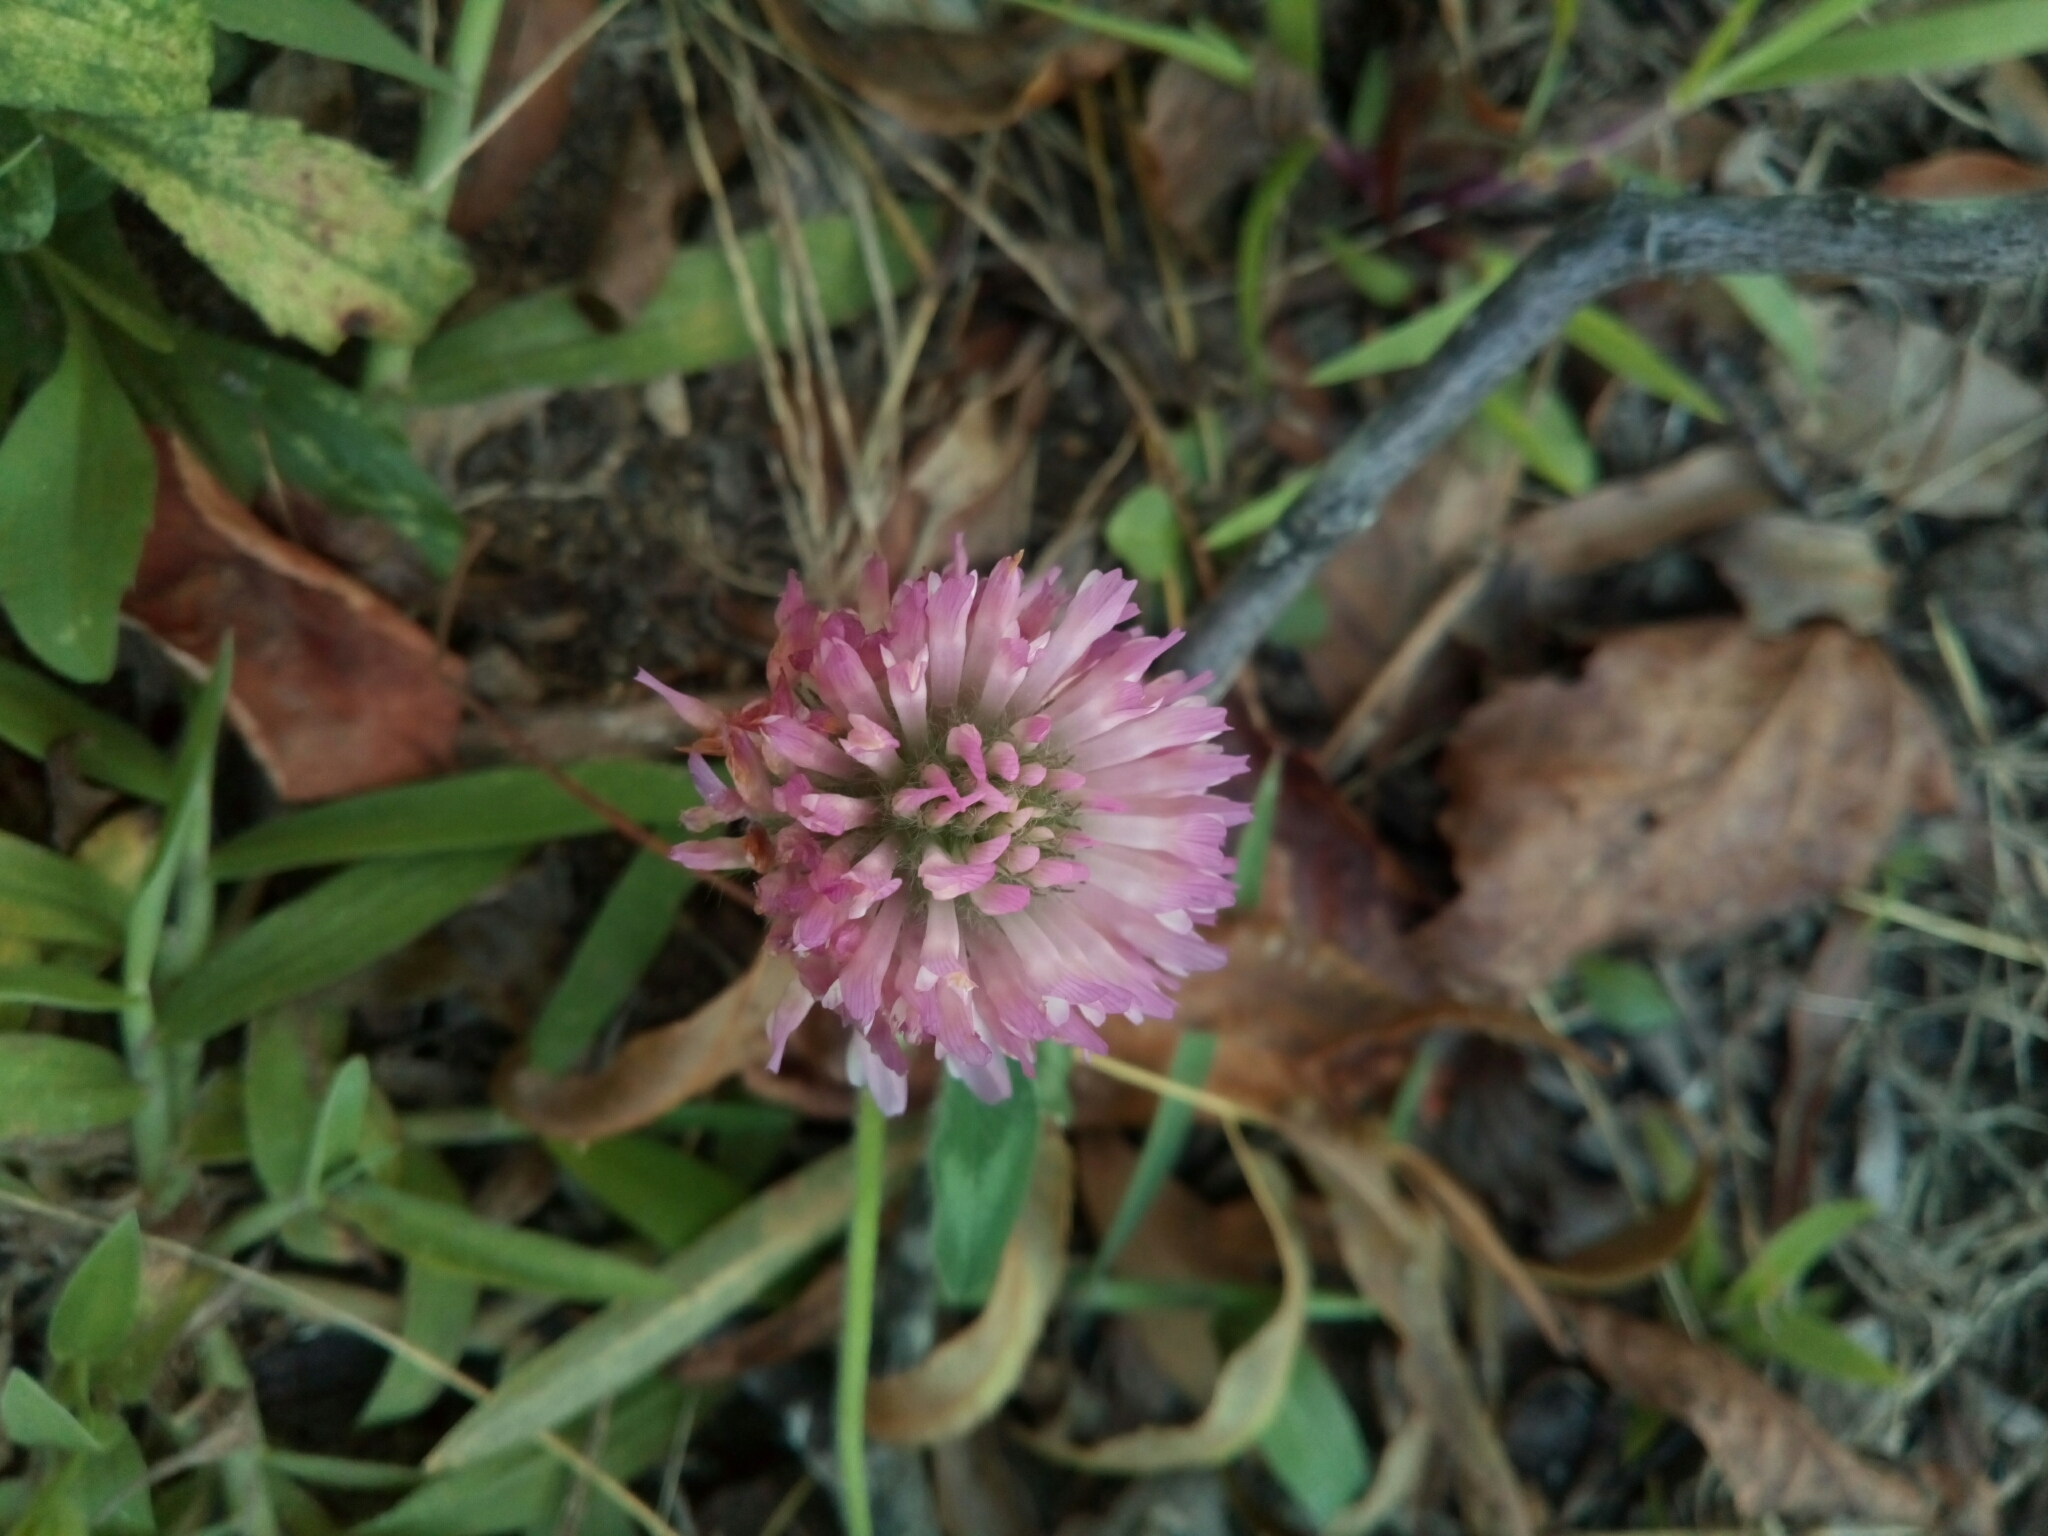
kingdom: Plantae
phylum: Tracheophyta
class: Magnoliopsida
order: Fabales
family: Fabaceae
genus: Trifolium
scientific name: Trifolium pratense
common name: Red clover
